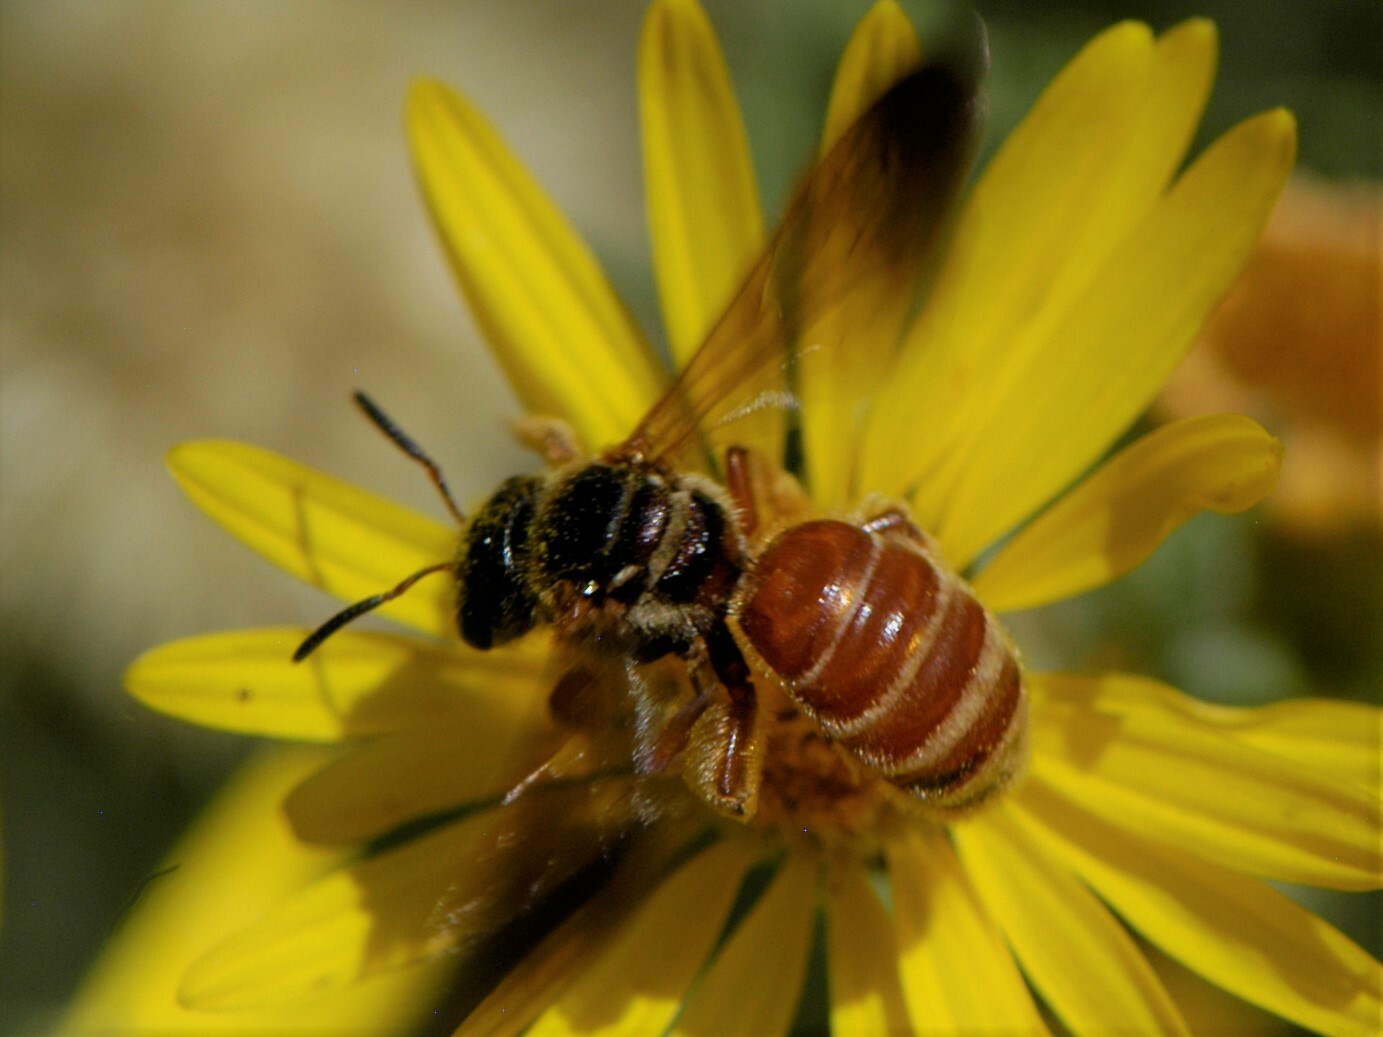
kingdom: Animalia
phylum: Arthropoda
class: Insecta
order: Hymenoptera
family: Halictidae
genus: Dieunomia
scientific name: Dieunomia nevadensis
